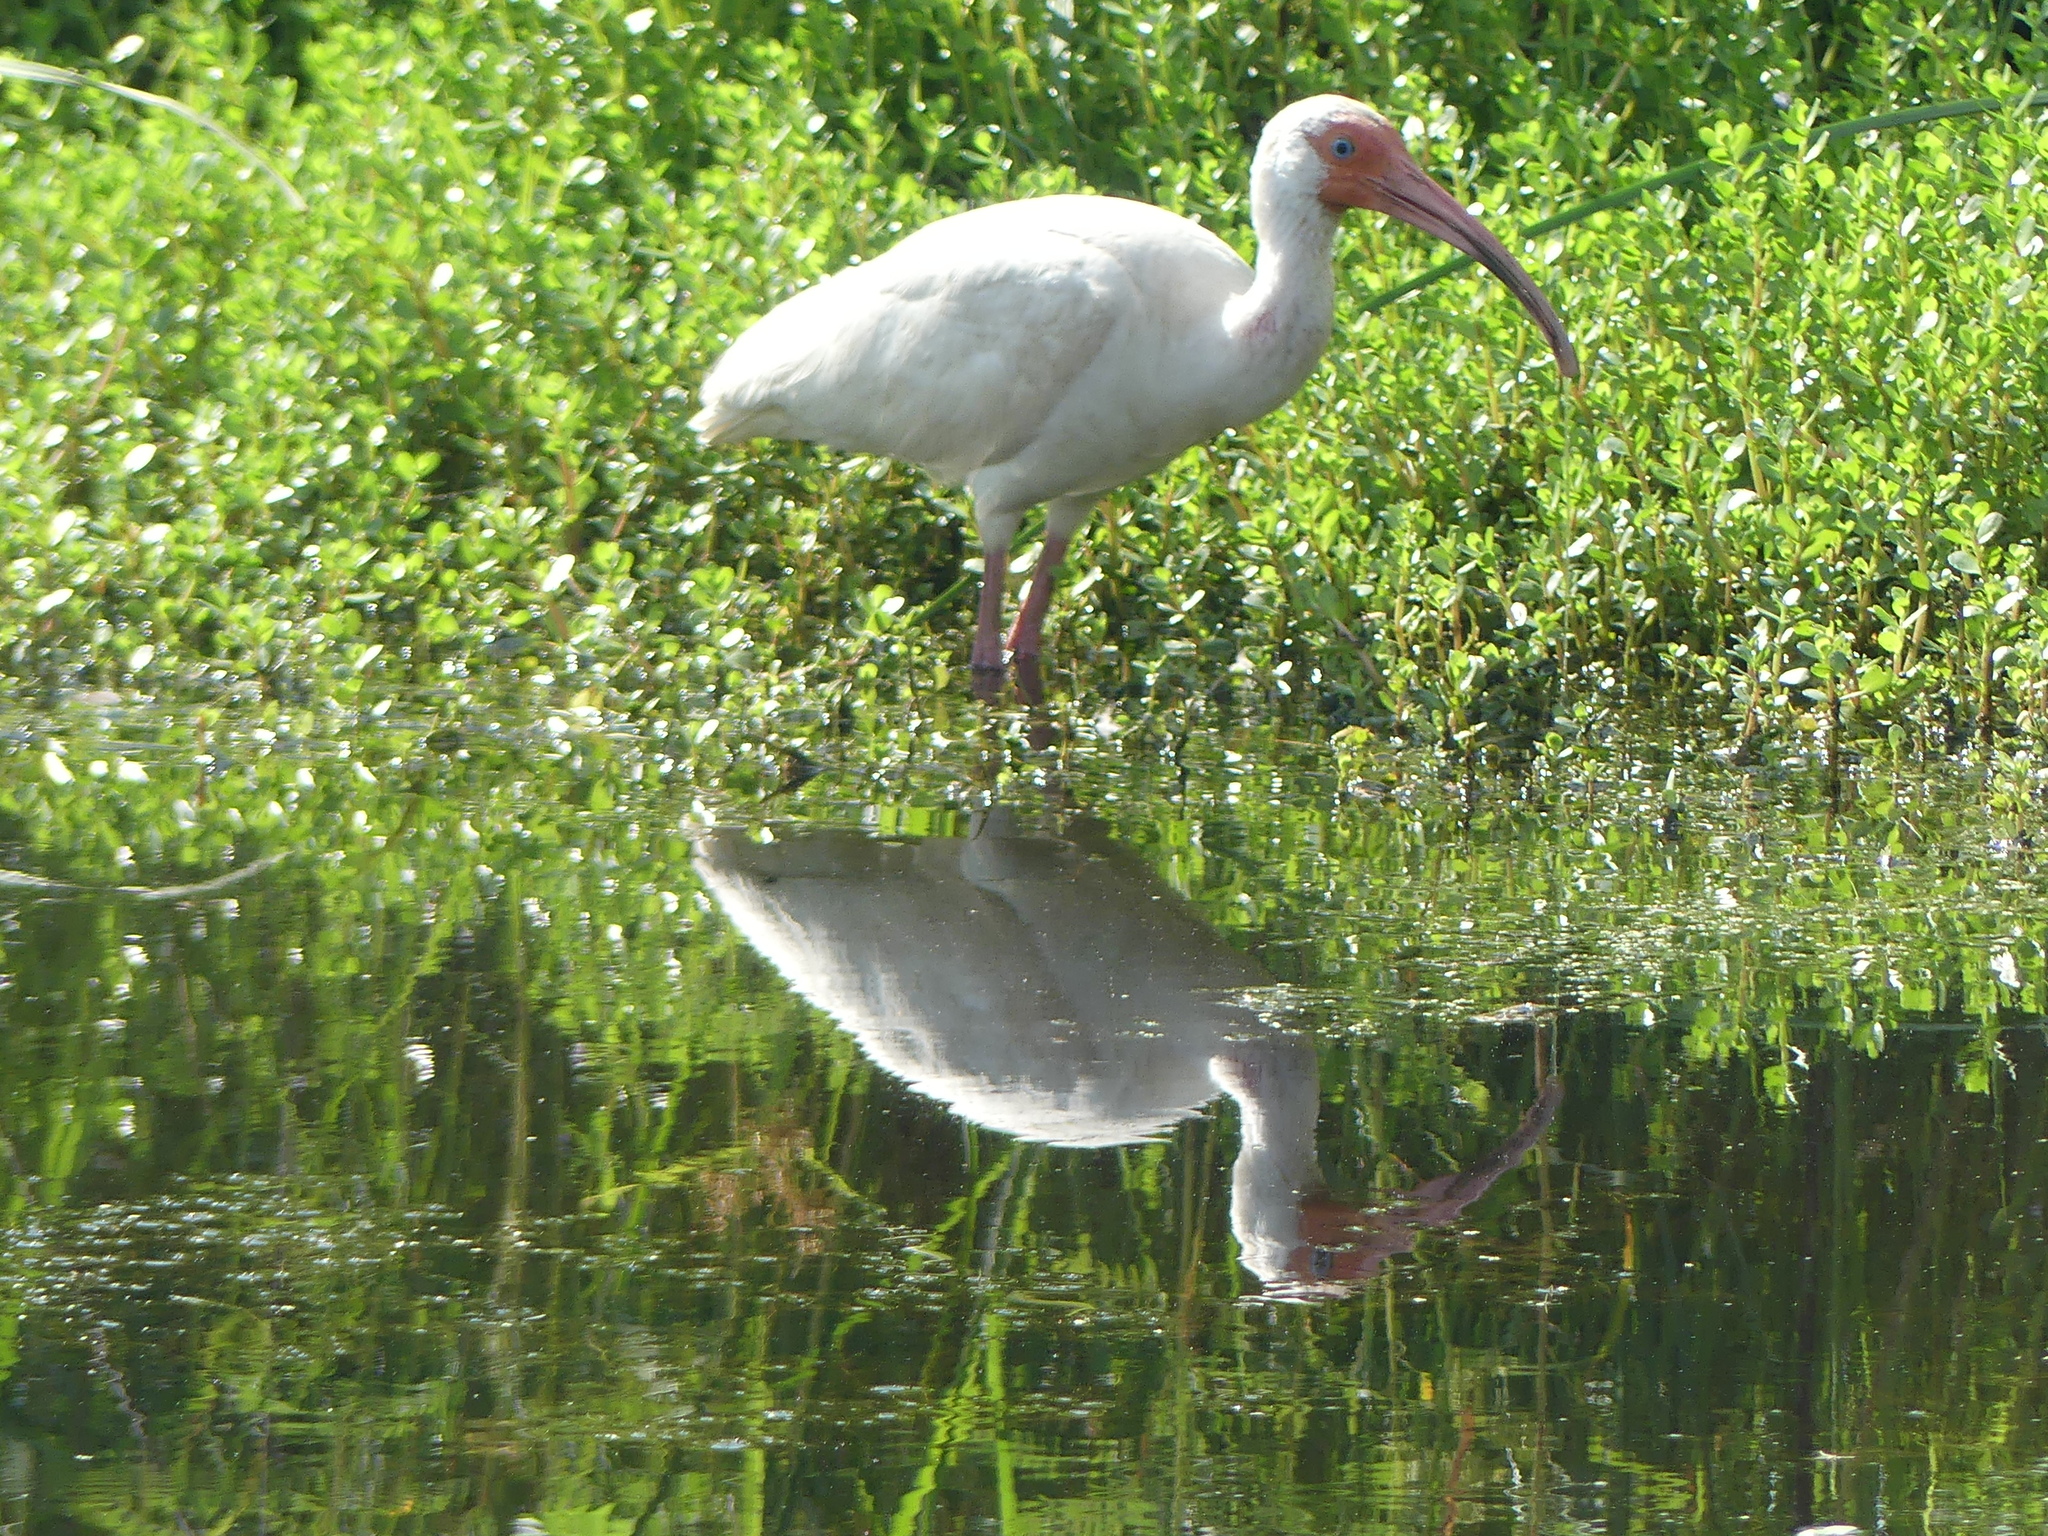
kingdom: Animalia
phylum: Chordata
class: Aves
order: Pelecaniformes
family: Threskiornithidae
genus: Eudocimus
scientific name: Eudocimus albus
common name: White ibis
